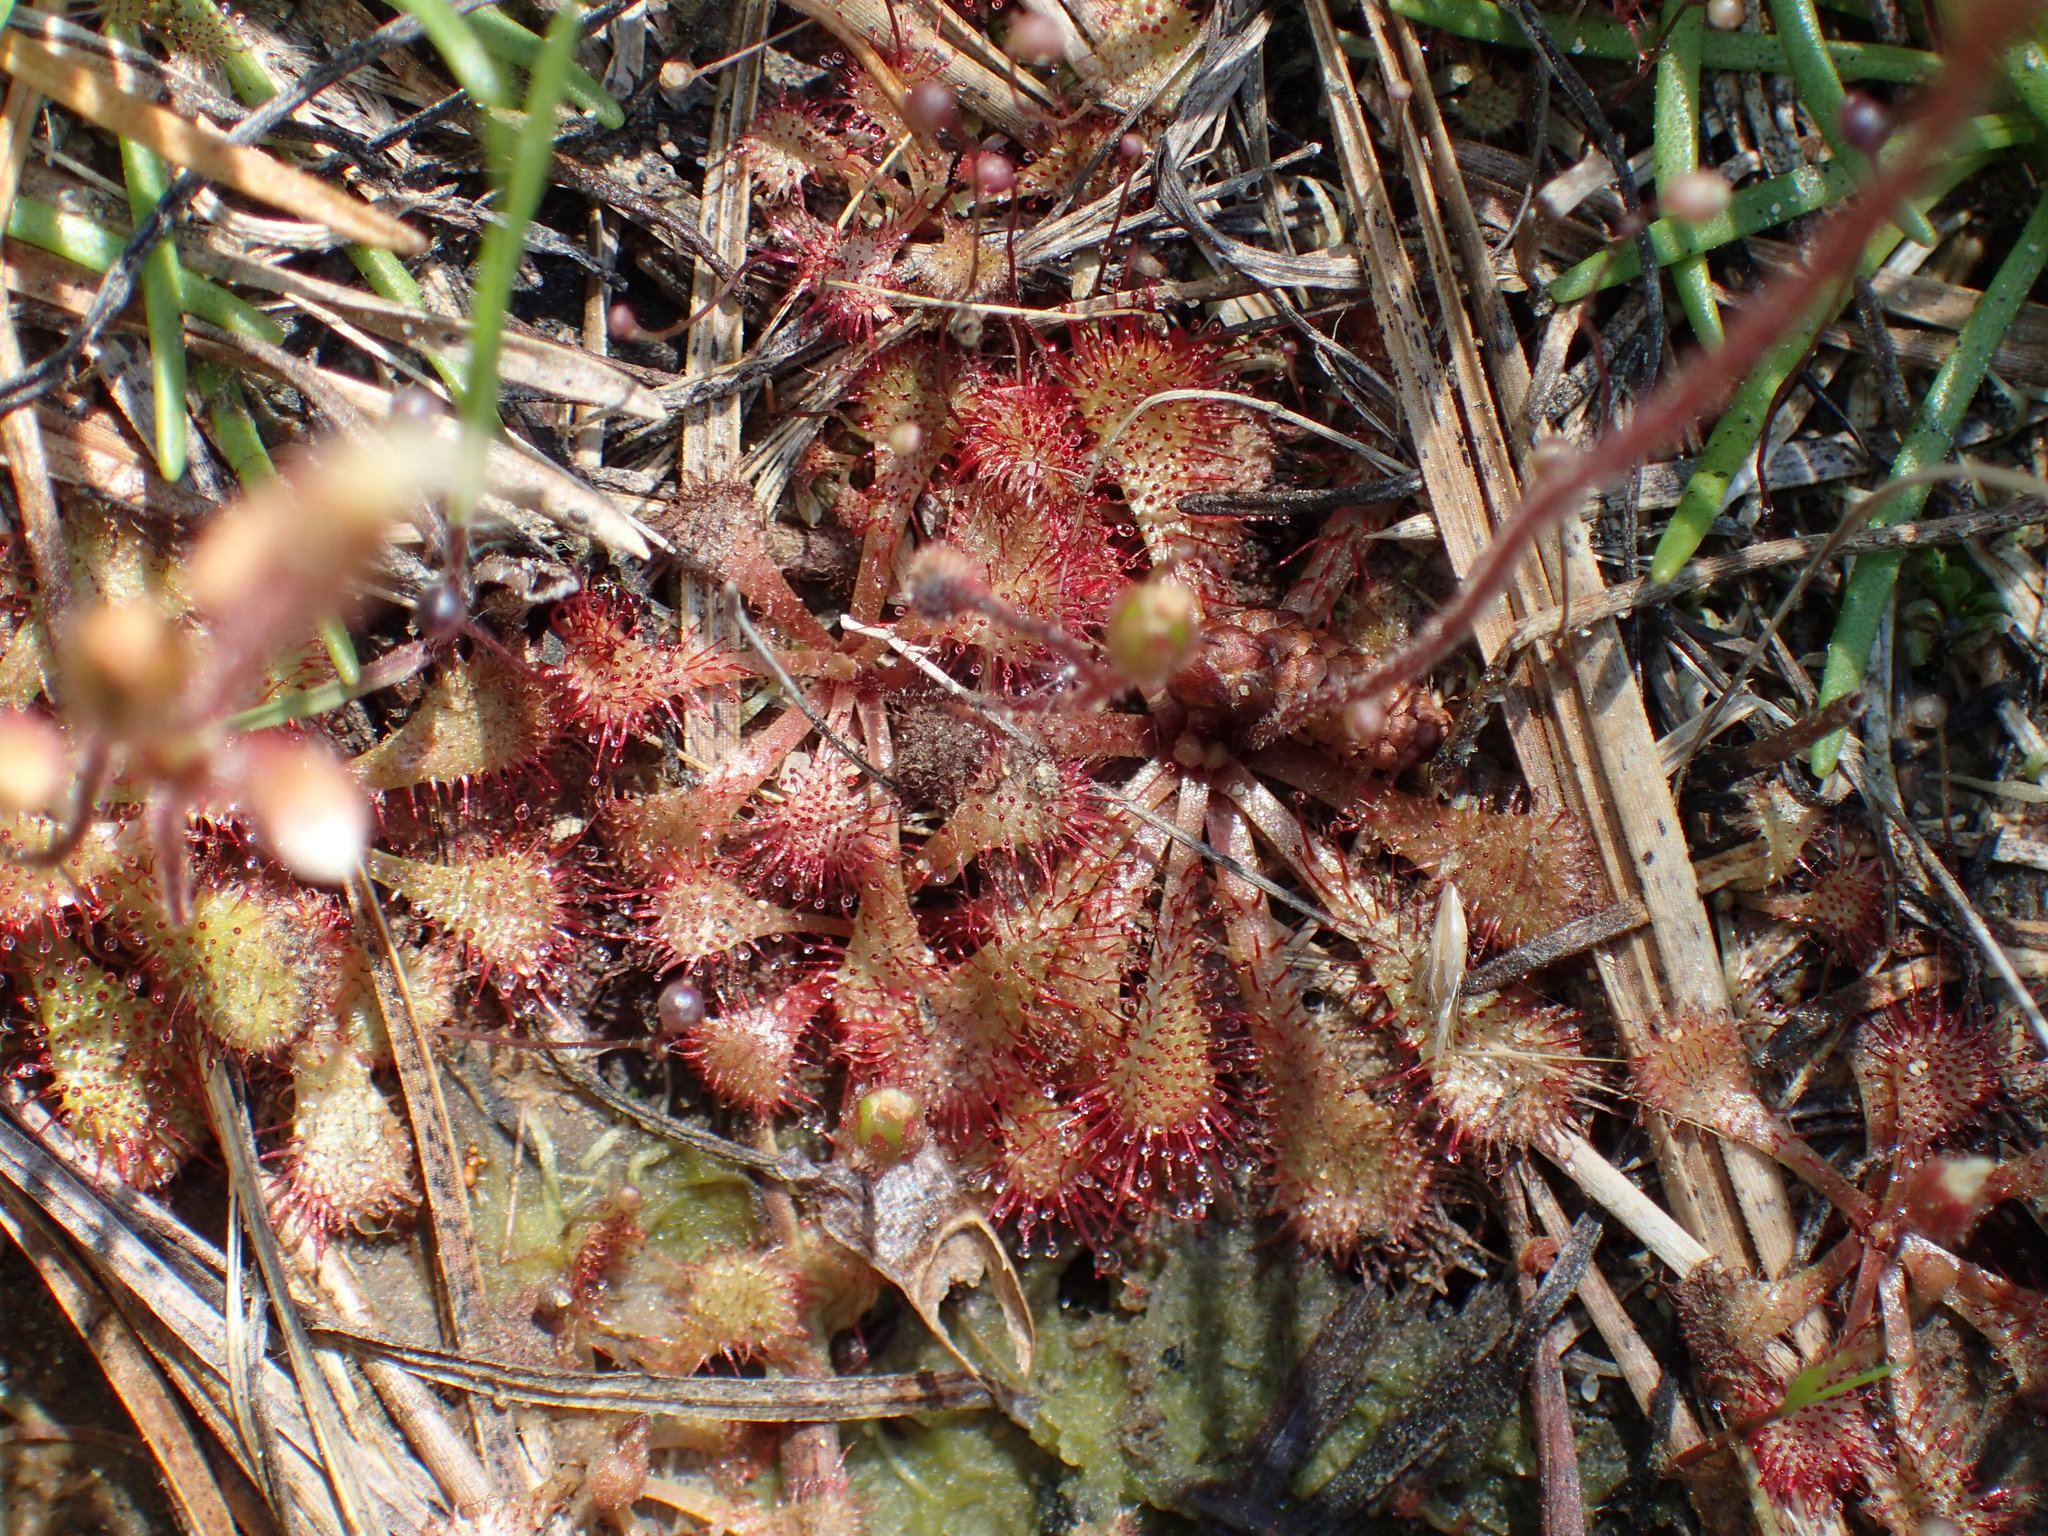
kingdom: Plantae
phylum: Tracheophyta
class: Magnoliopsida
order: Caryophyllales
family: Droseraceae
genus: Drosera
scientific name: Drosera brevifolia
